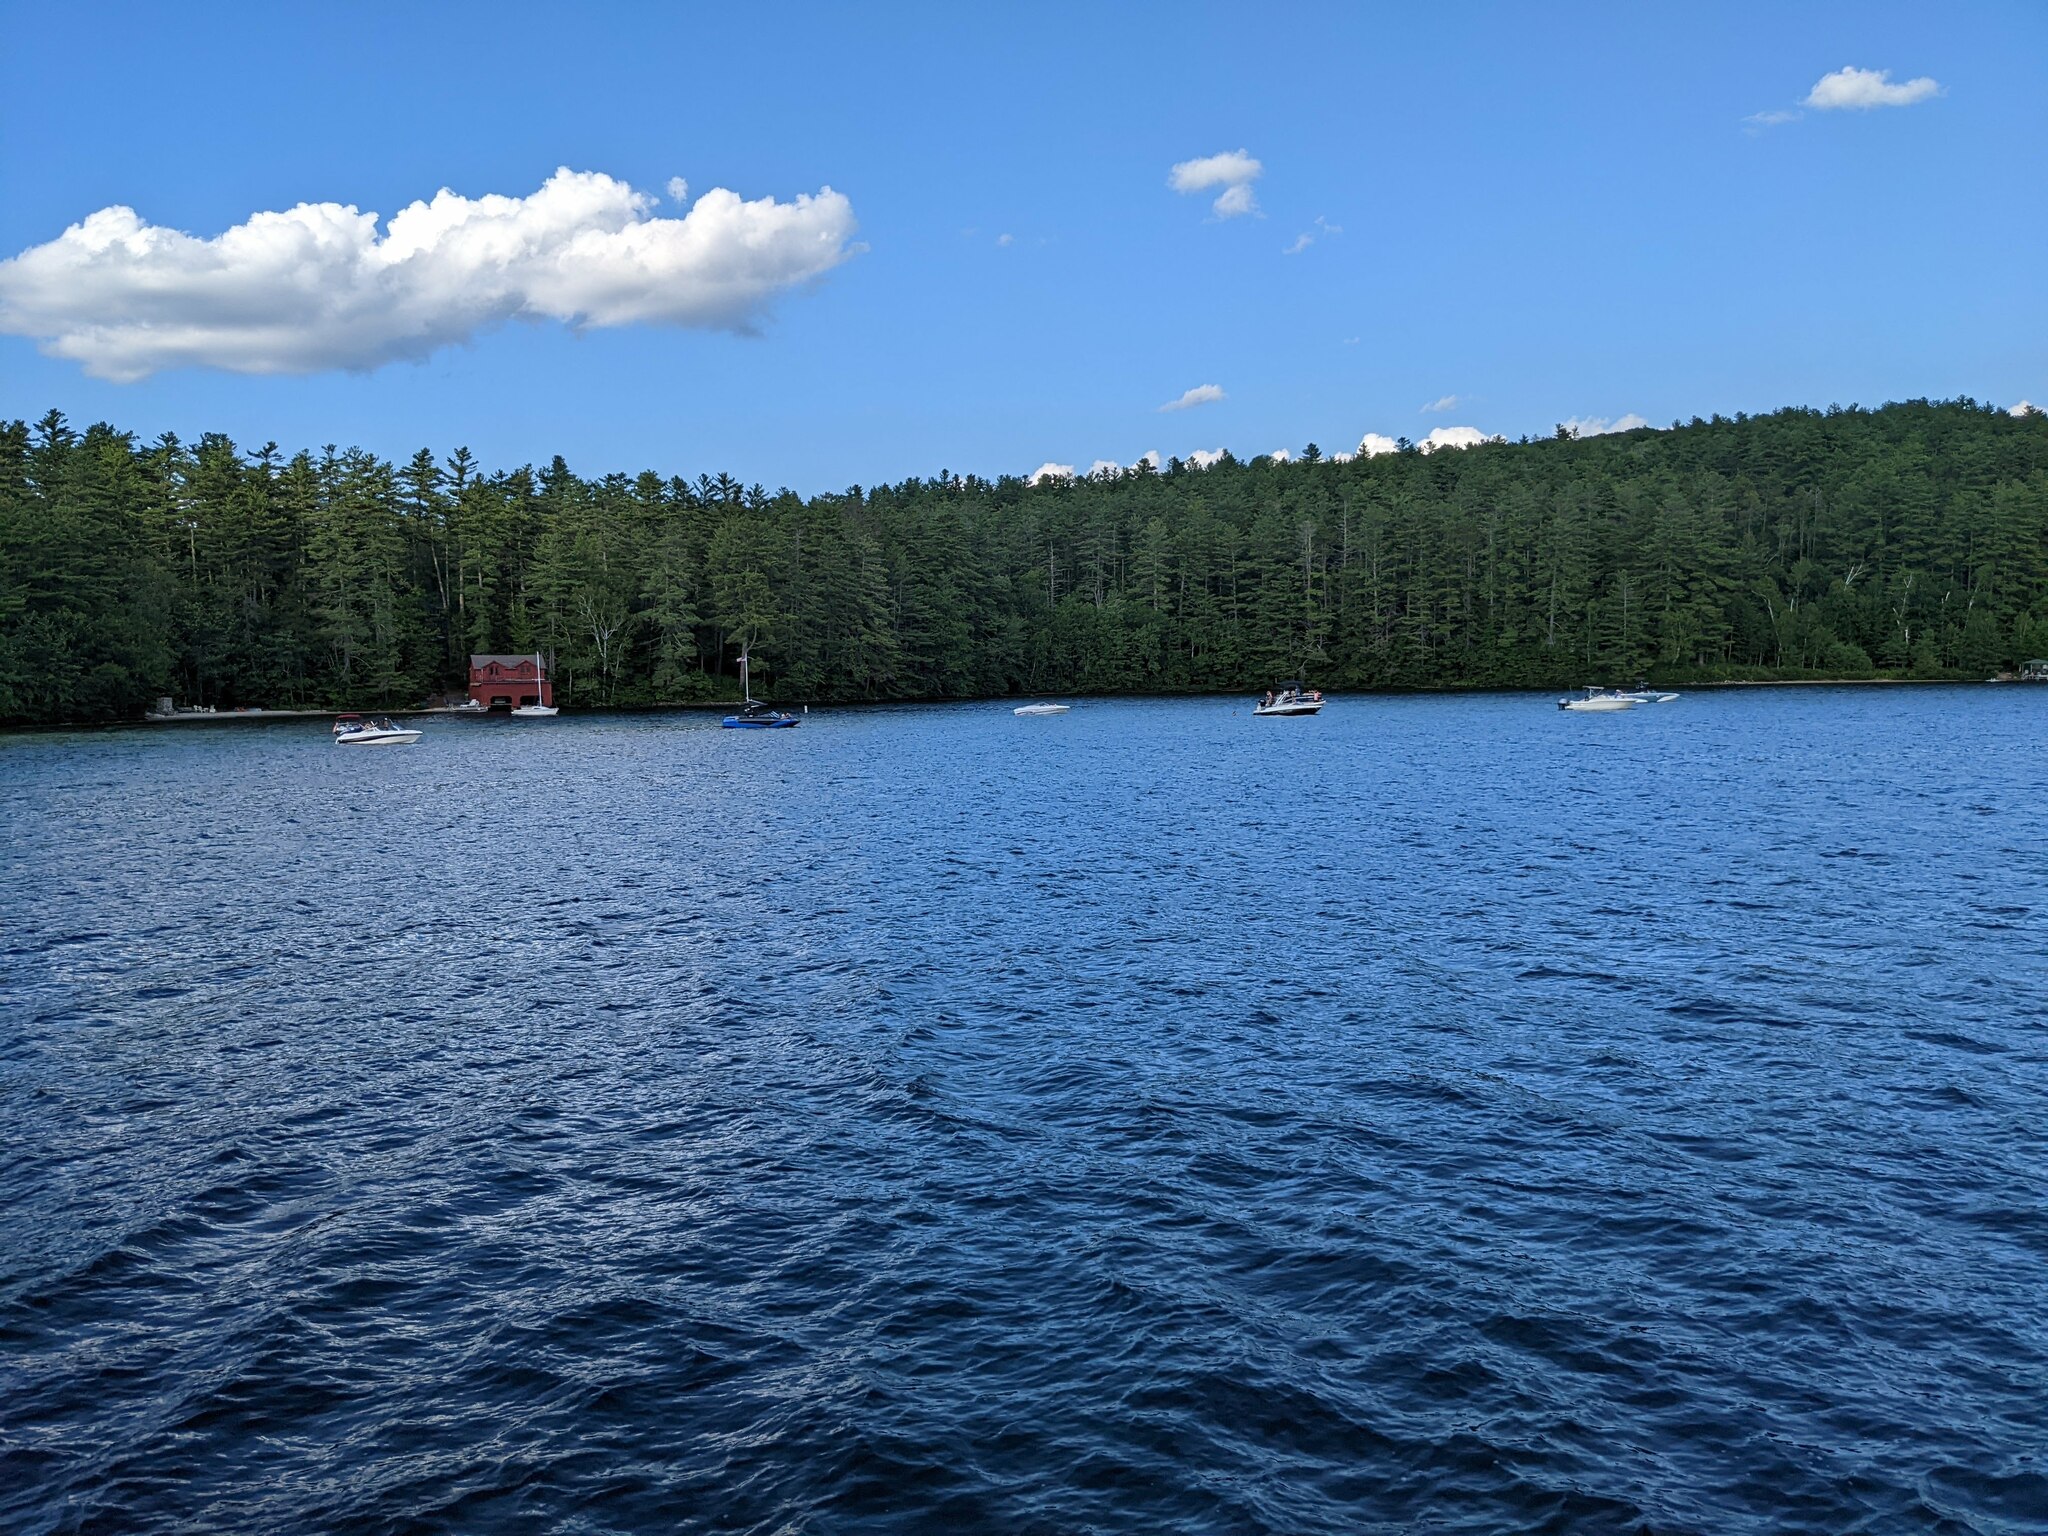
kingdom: Plantae
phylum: Tracheophyta
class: Pinopsida
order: Pinales
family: Pinaceae
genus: Pinus
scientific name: Pinus strobus
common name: Weymouth pine
